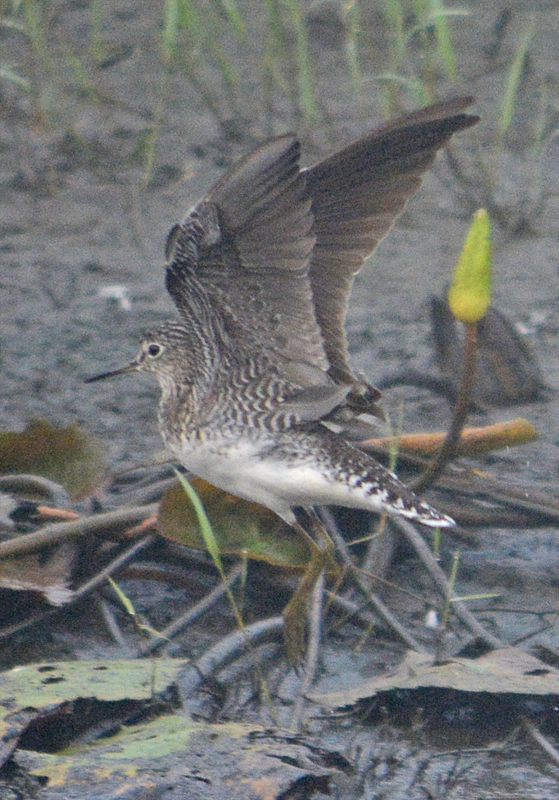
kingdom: Animalia
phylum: Chordata
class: Aves
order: Charadriiformes
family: Scolopacidae
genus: Tringa
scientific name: Tringa solitaria
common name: Solitary sandpiper
